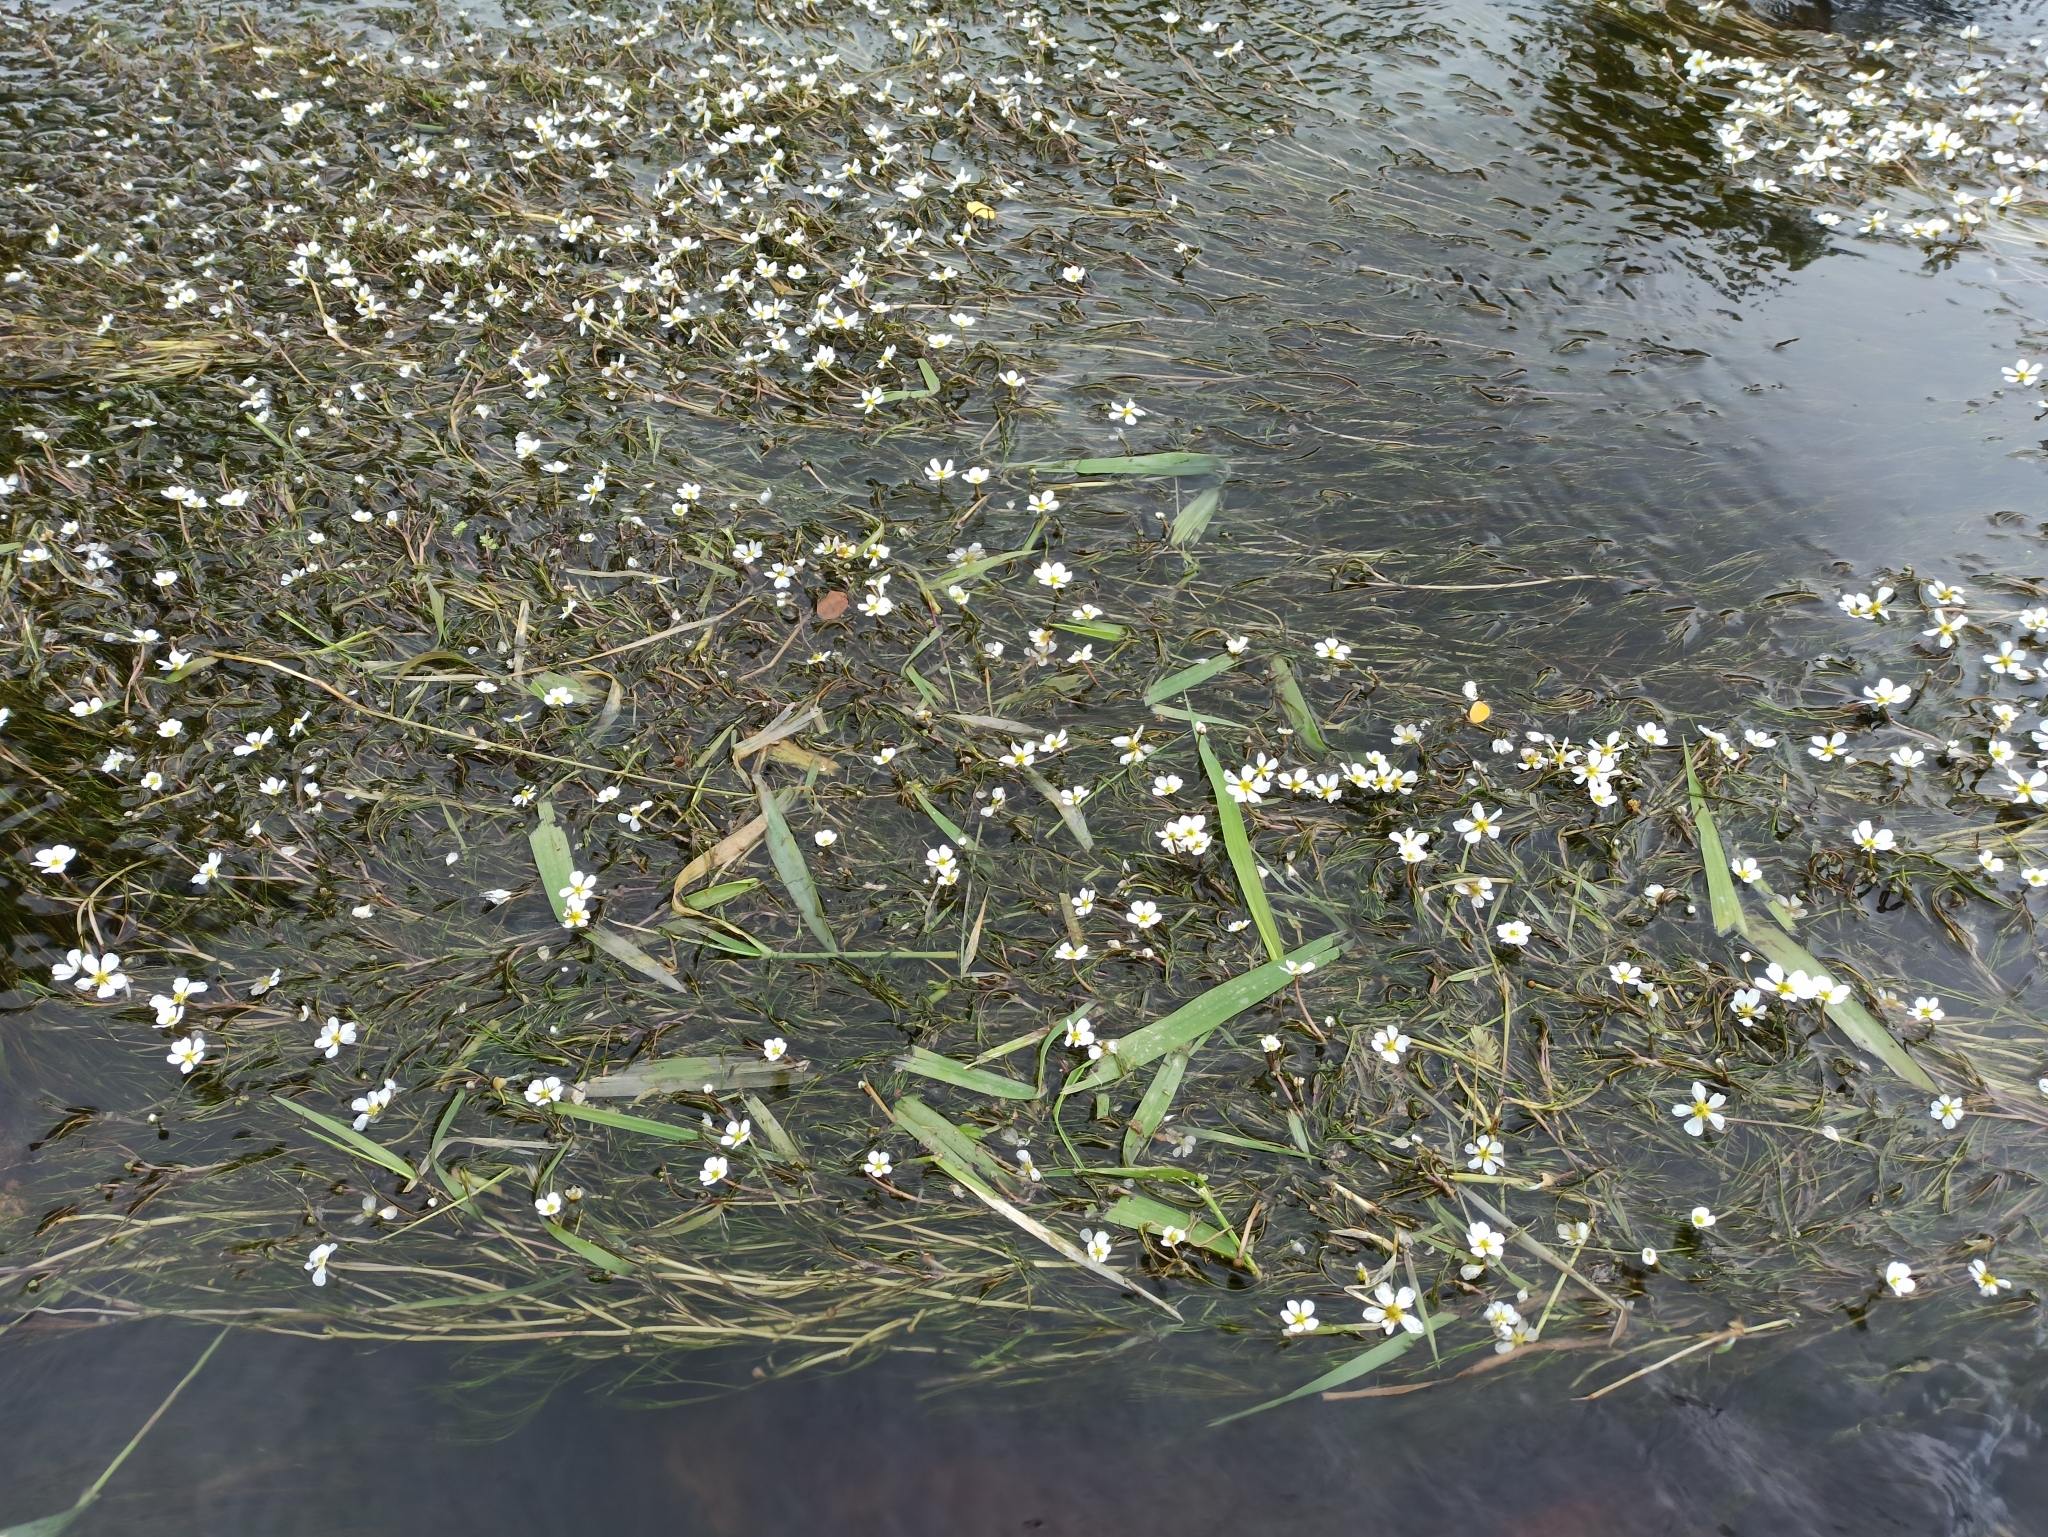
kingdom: Plantae
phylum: Tracheophyta
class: Magnoliopsida
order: Ranunculales
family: Ranunculaceae
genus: Ranunculus
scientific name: Ranunculus fluitans
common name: River water-crowfoot
